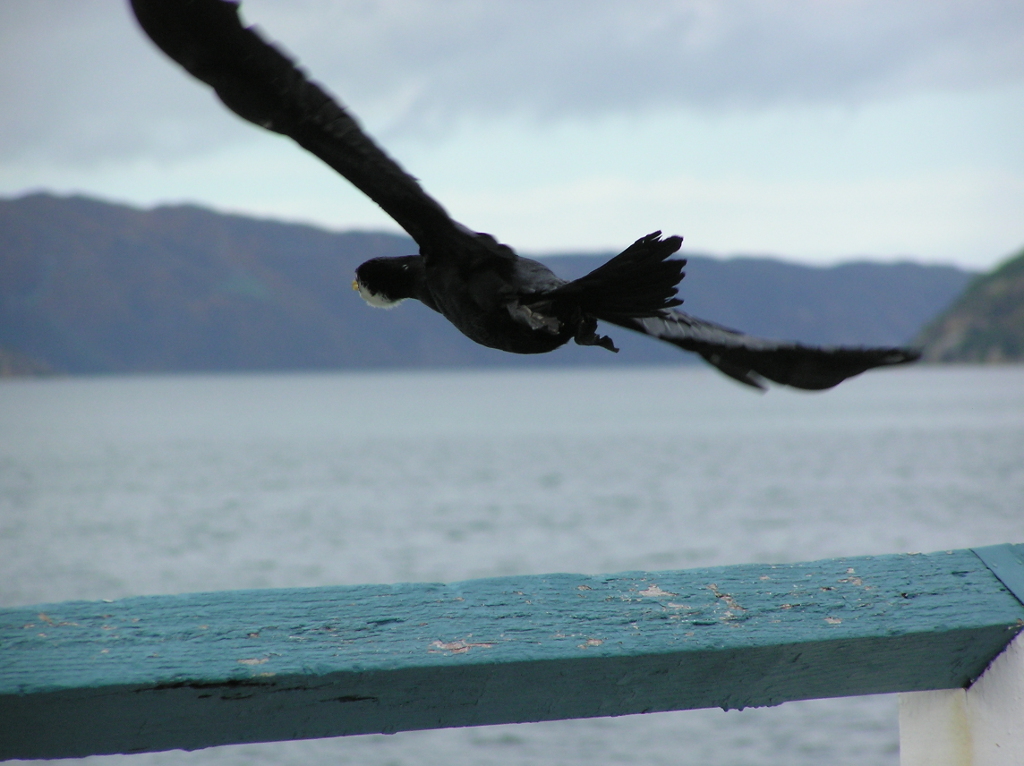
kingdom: Animalia
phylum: Chordata
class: Aves
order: Suliformes
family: Phalacrocoracidae
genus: Microcarbo
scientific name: Microcarbo melanoleucos
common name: Little pied cormorant
